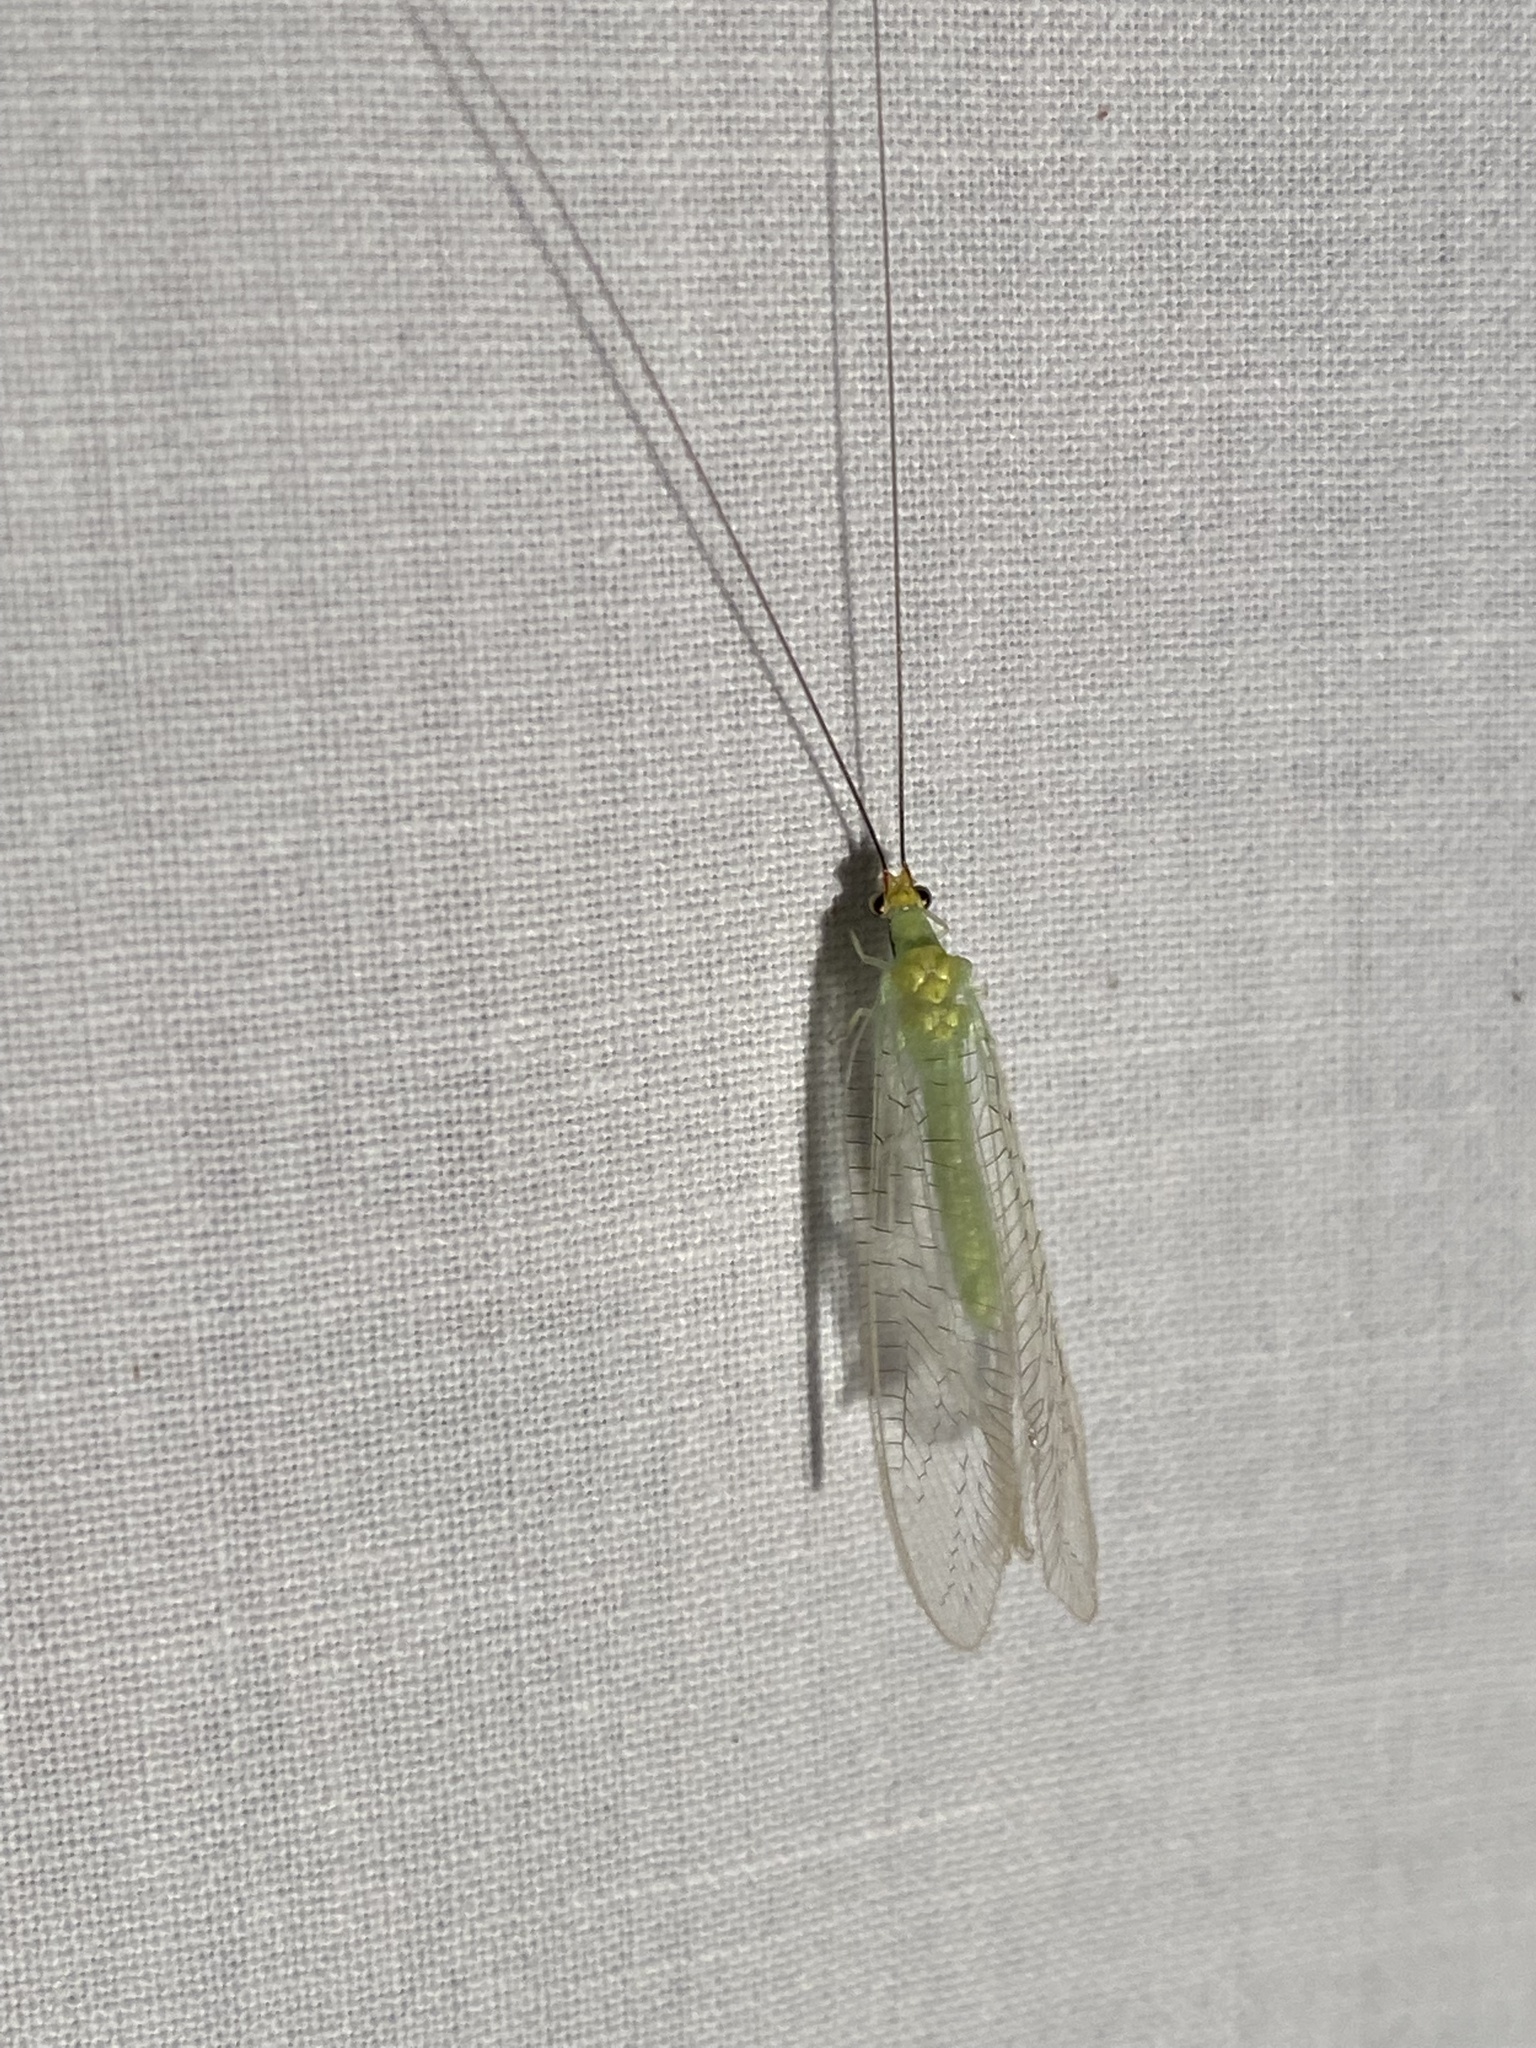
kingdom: Animalia
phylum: Arthropoda
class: Insecta
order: Neuroptera
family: Chrysopidae
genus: Leucochrysa
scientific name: Leucochrysa pavida
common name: Lichen-carrying green lacewing
